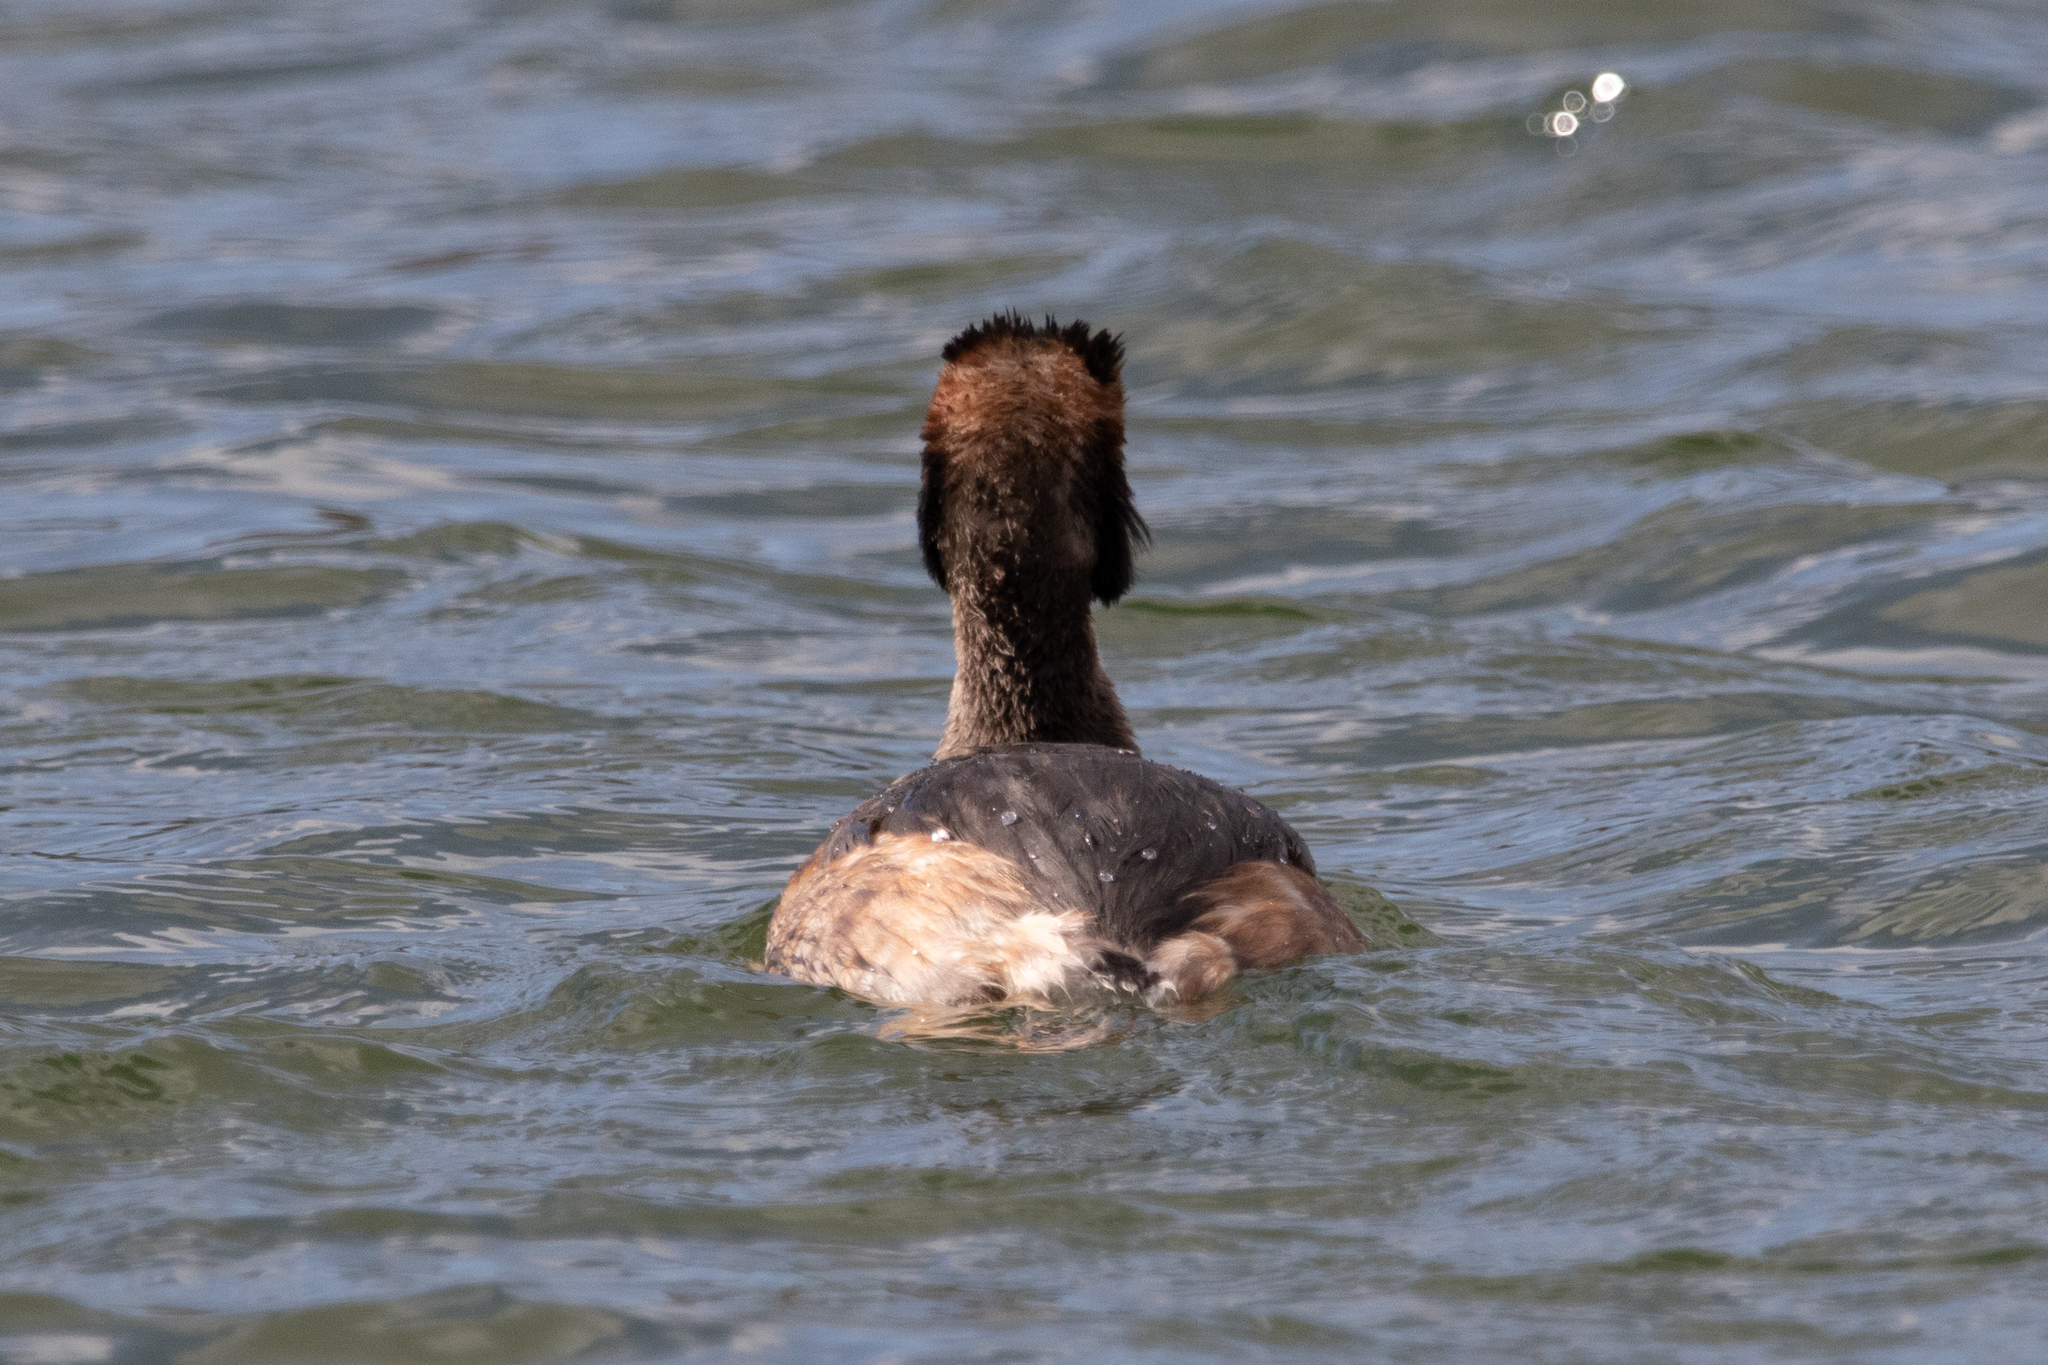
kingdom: Animalia
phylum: Chordata
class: Aves
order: Podicipediformes
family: Podicipedidae
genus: Podiceps
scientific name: Podiceps cristatus
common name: Great crested grebe
